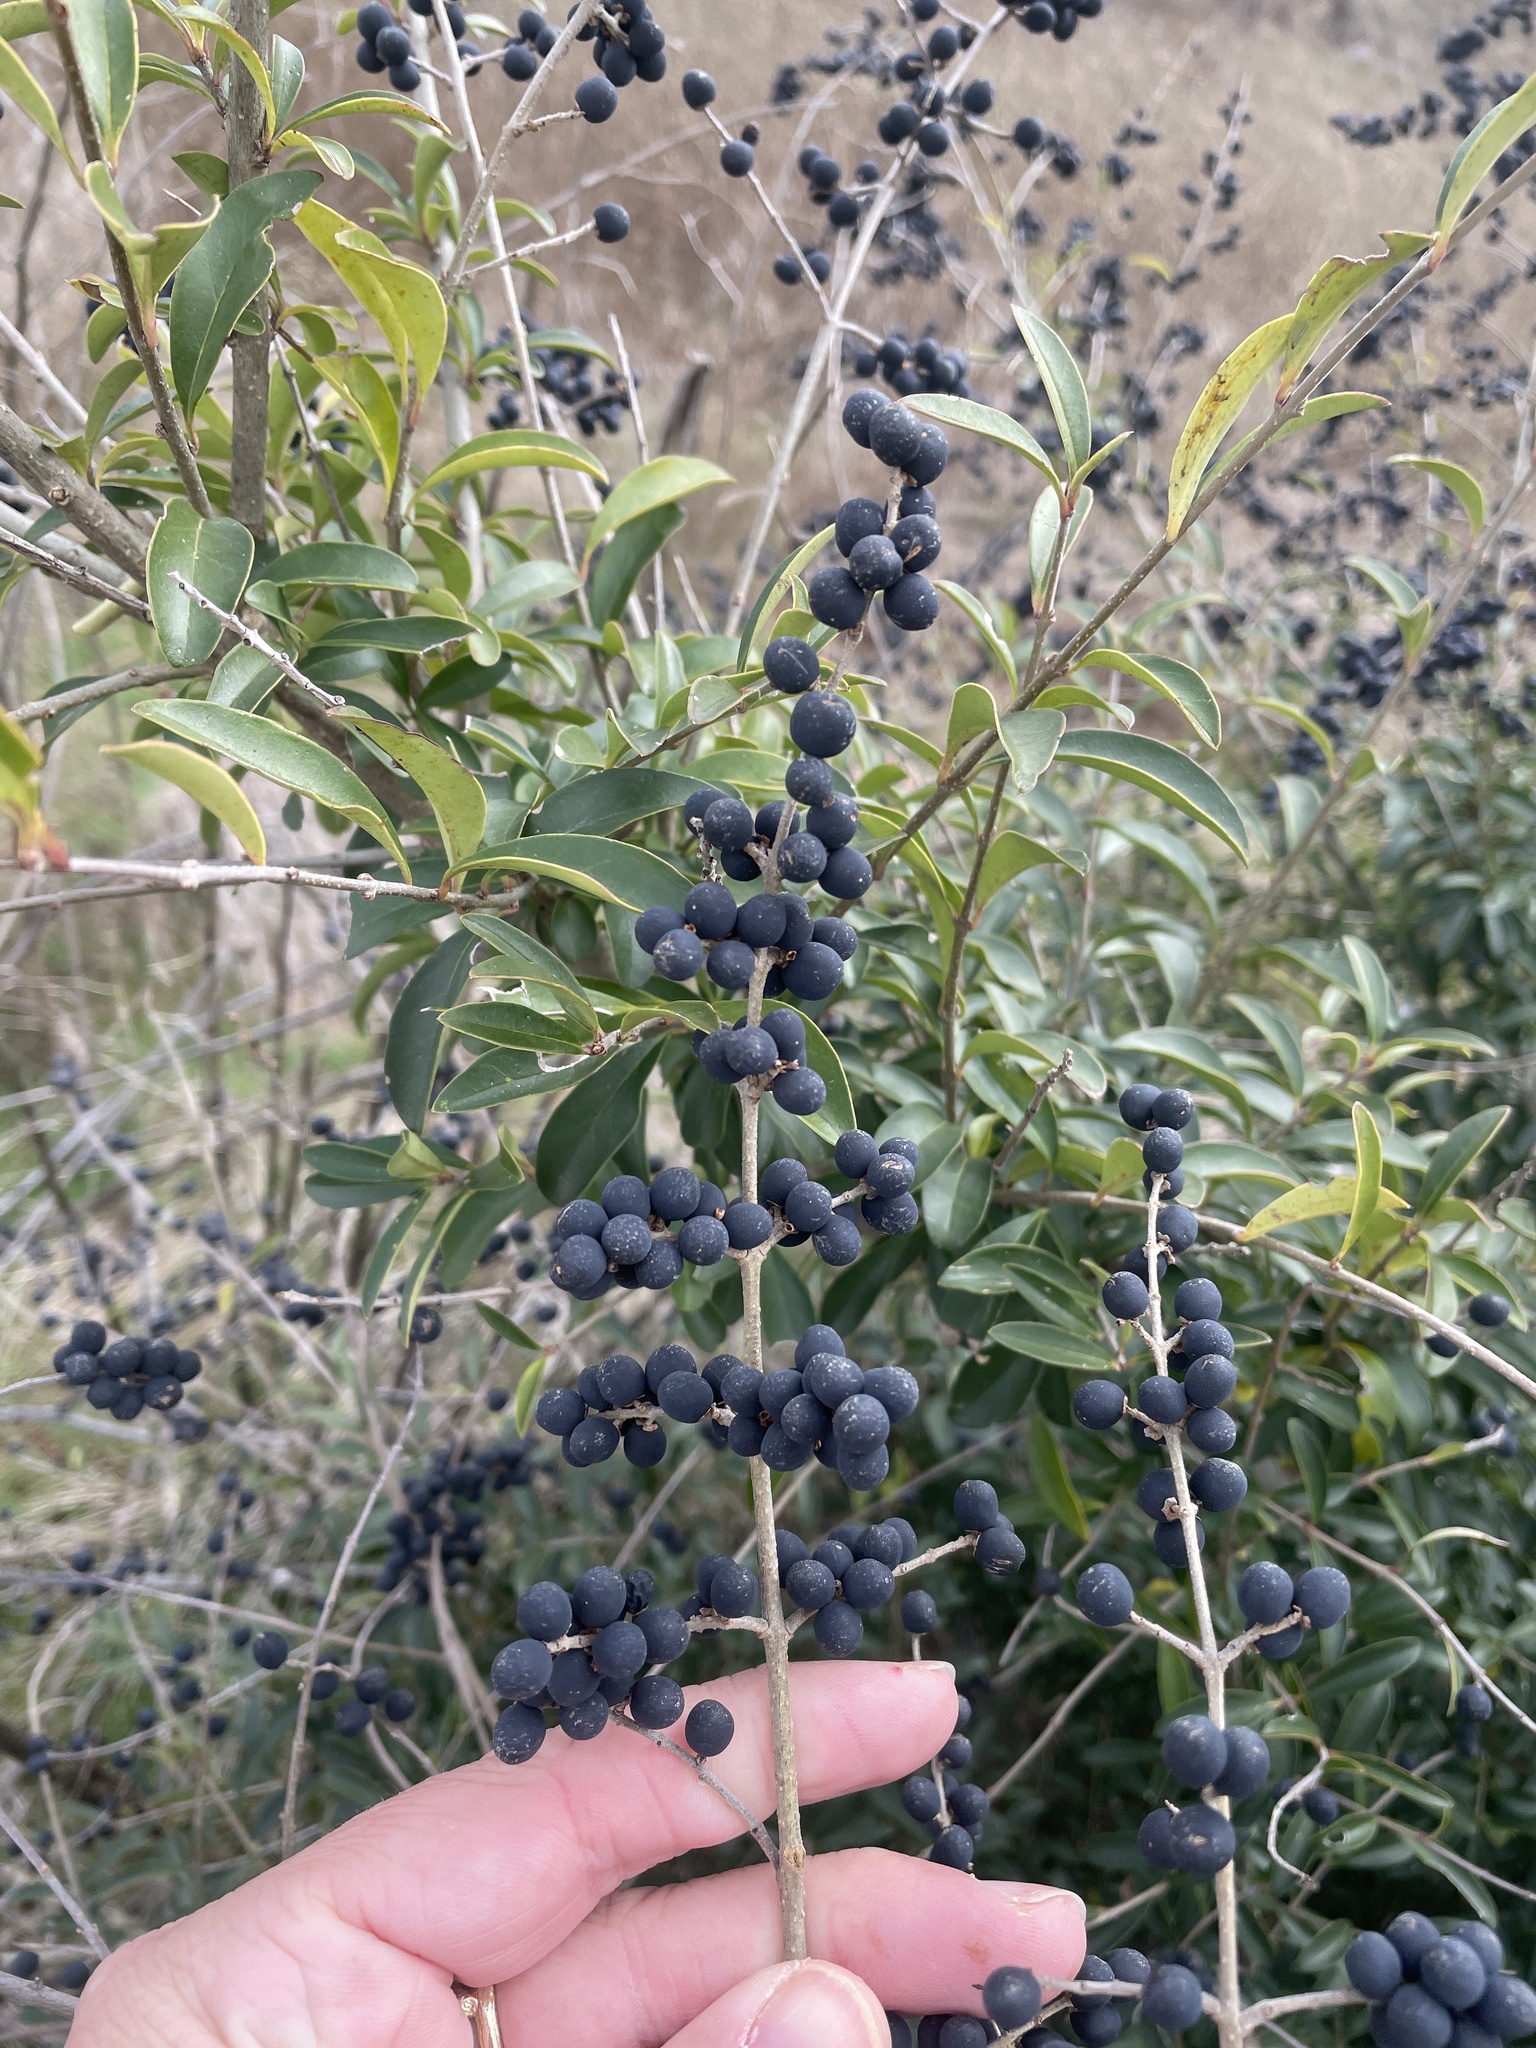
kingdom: Plantae
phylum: Tracheophyta
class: Magnoliopsida
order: Lamiales
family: Oleaceae
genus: Ligustrum
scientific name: Ligustrum quihoui
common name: Waxyleaf privet
